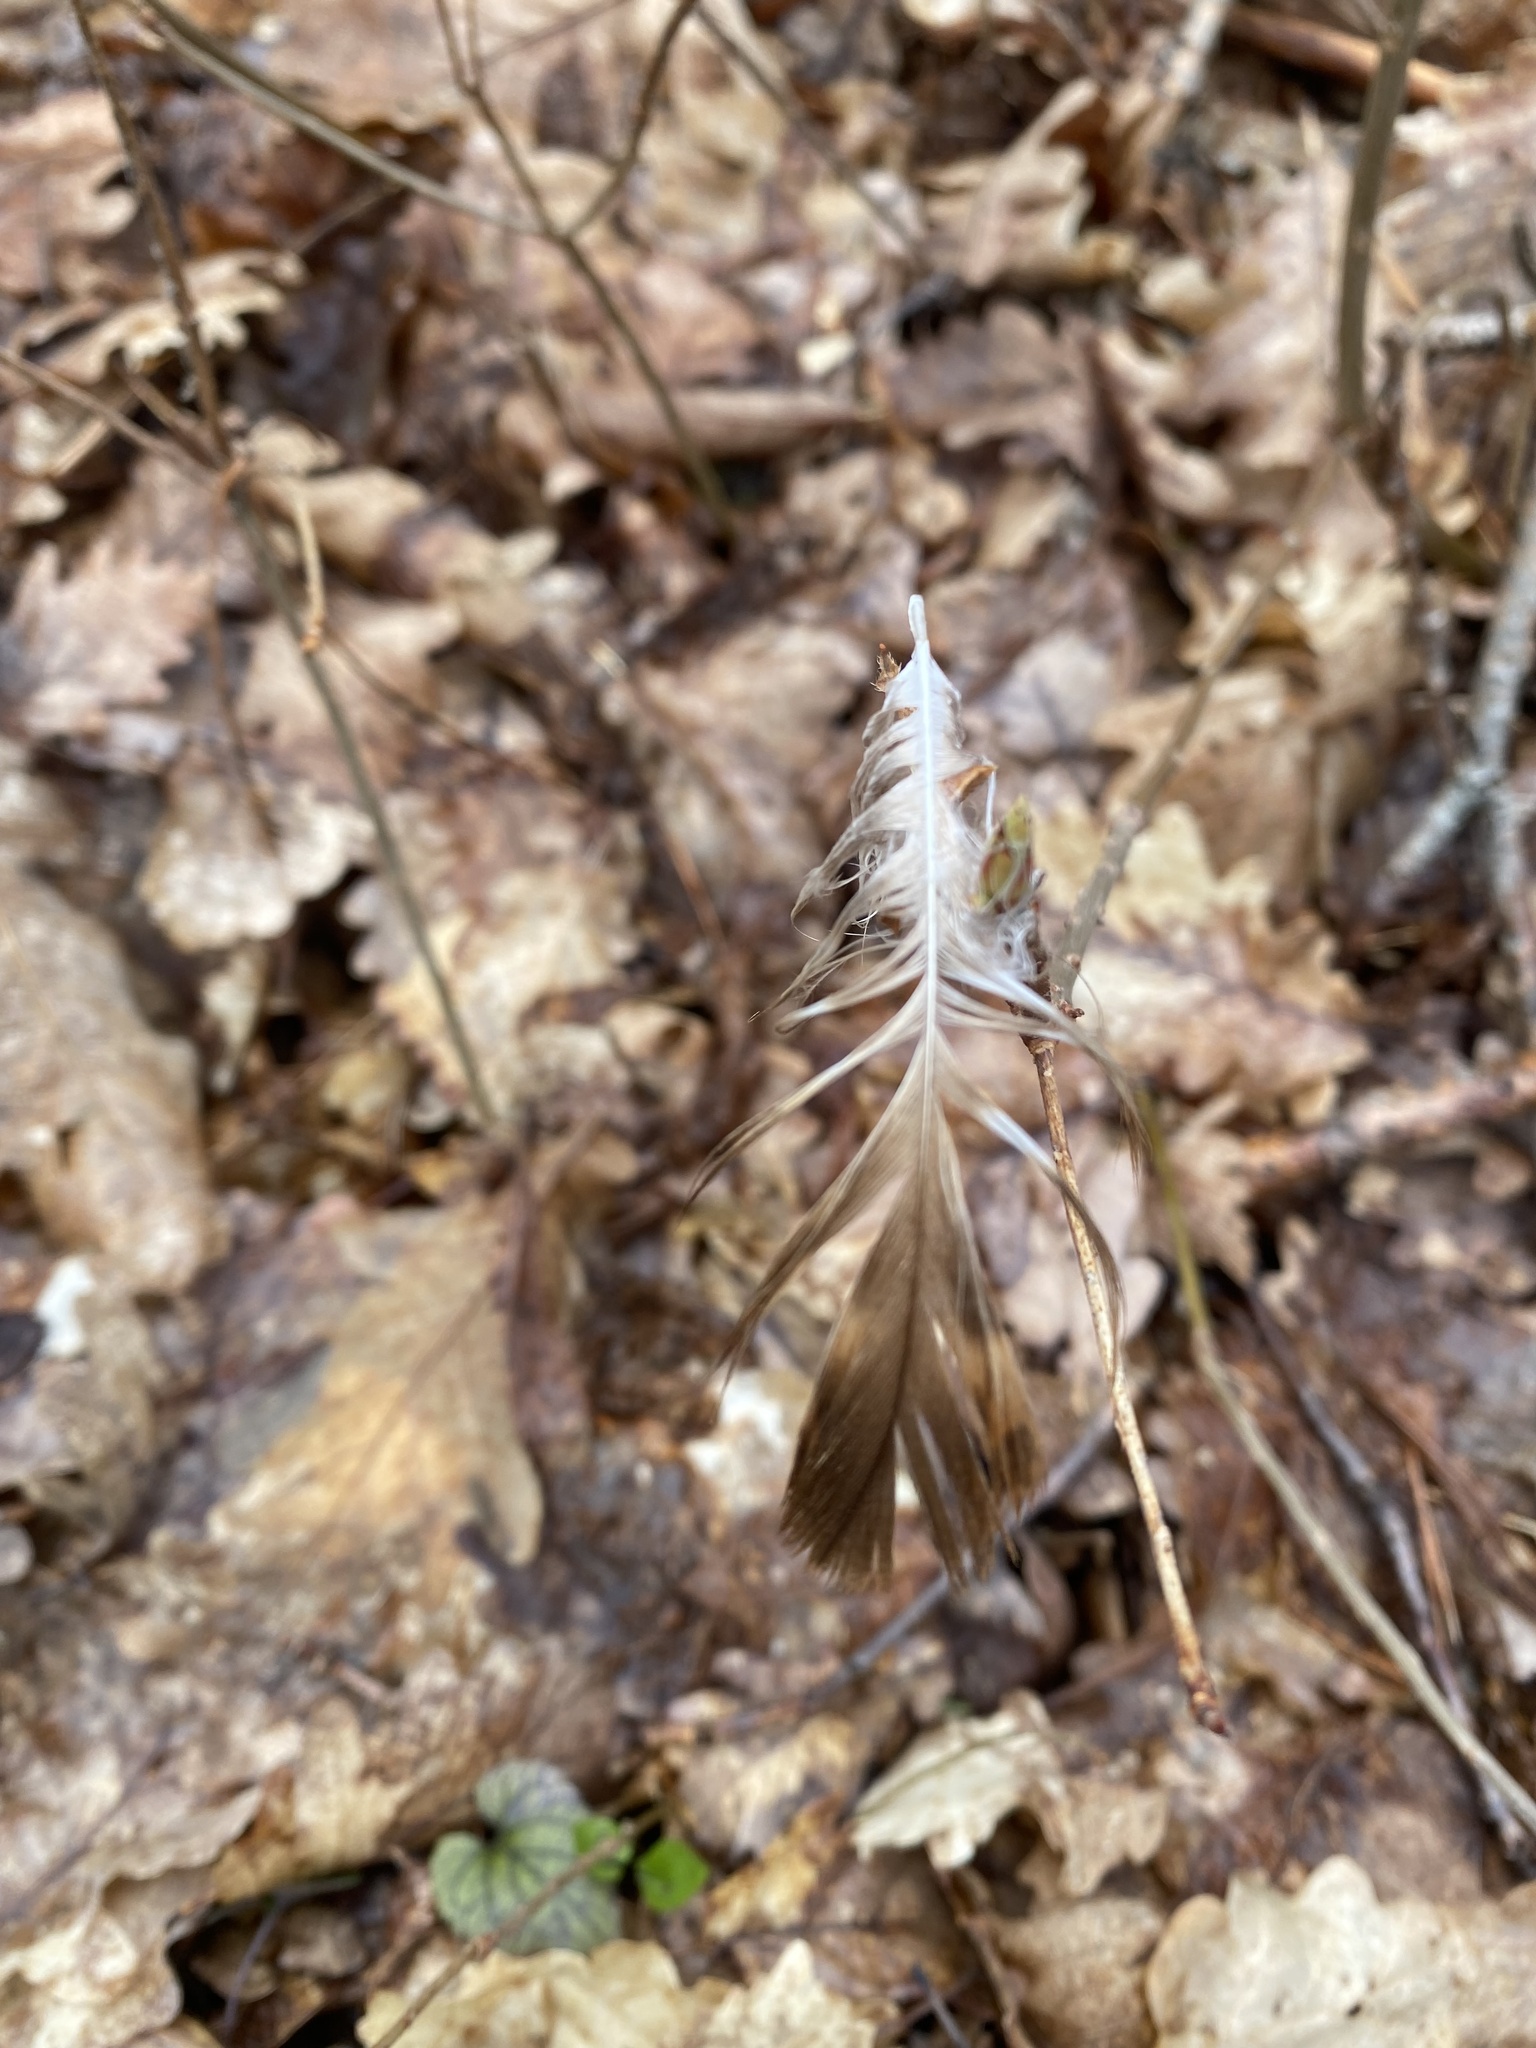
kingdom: Animalia
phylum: Chordata
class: Aves
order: Accipitriformes
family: Accipitridae
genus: Buteo
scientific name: Buteo buteo
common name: Common buzzard
